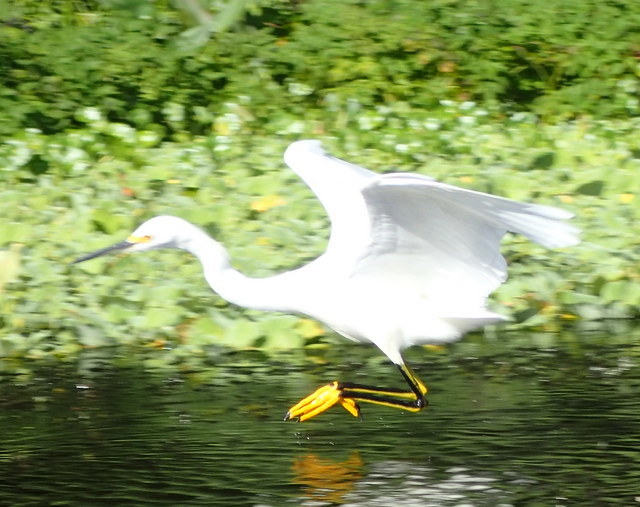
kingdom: Animalia
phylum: Chordata
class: Aves
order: Pelecaniformes
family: Ardeidae
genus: Egretta
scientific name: Egretta thula
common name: Snowy egret
